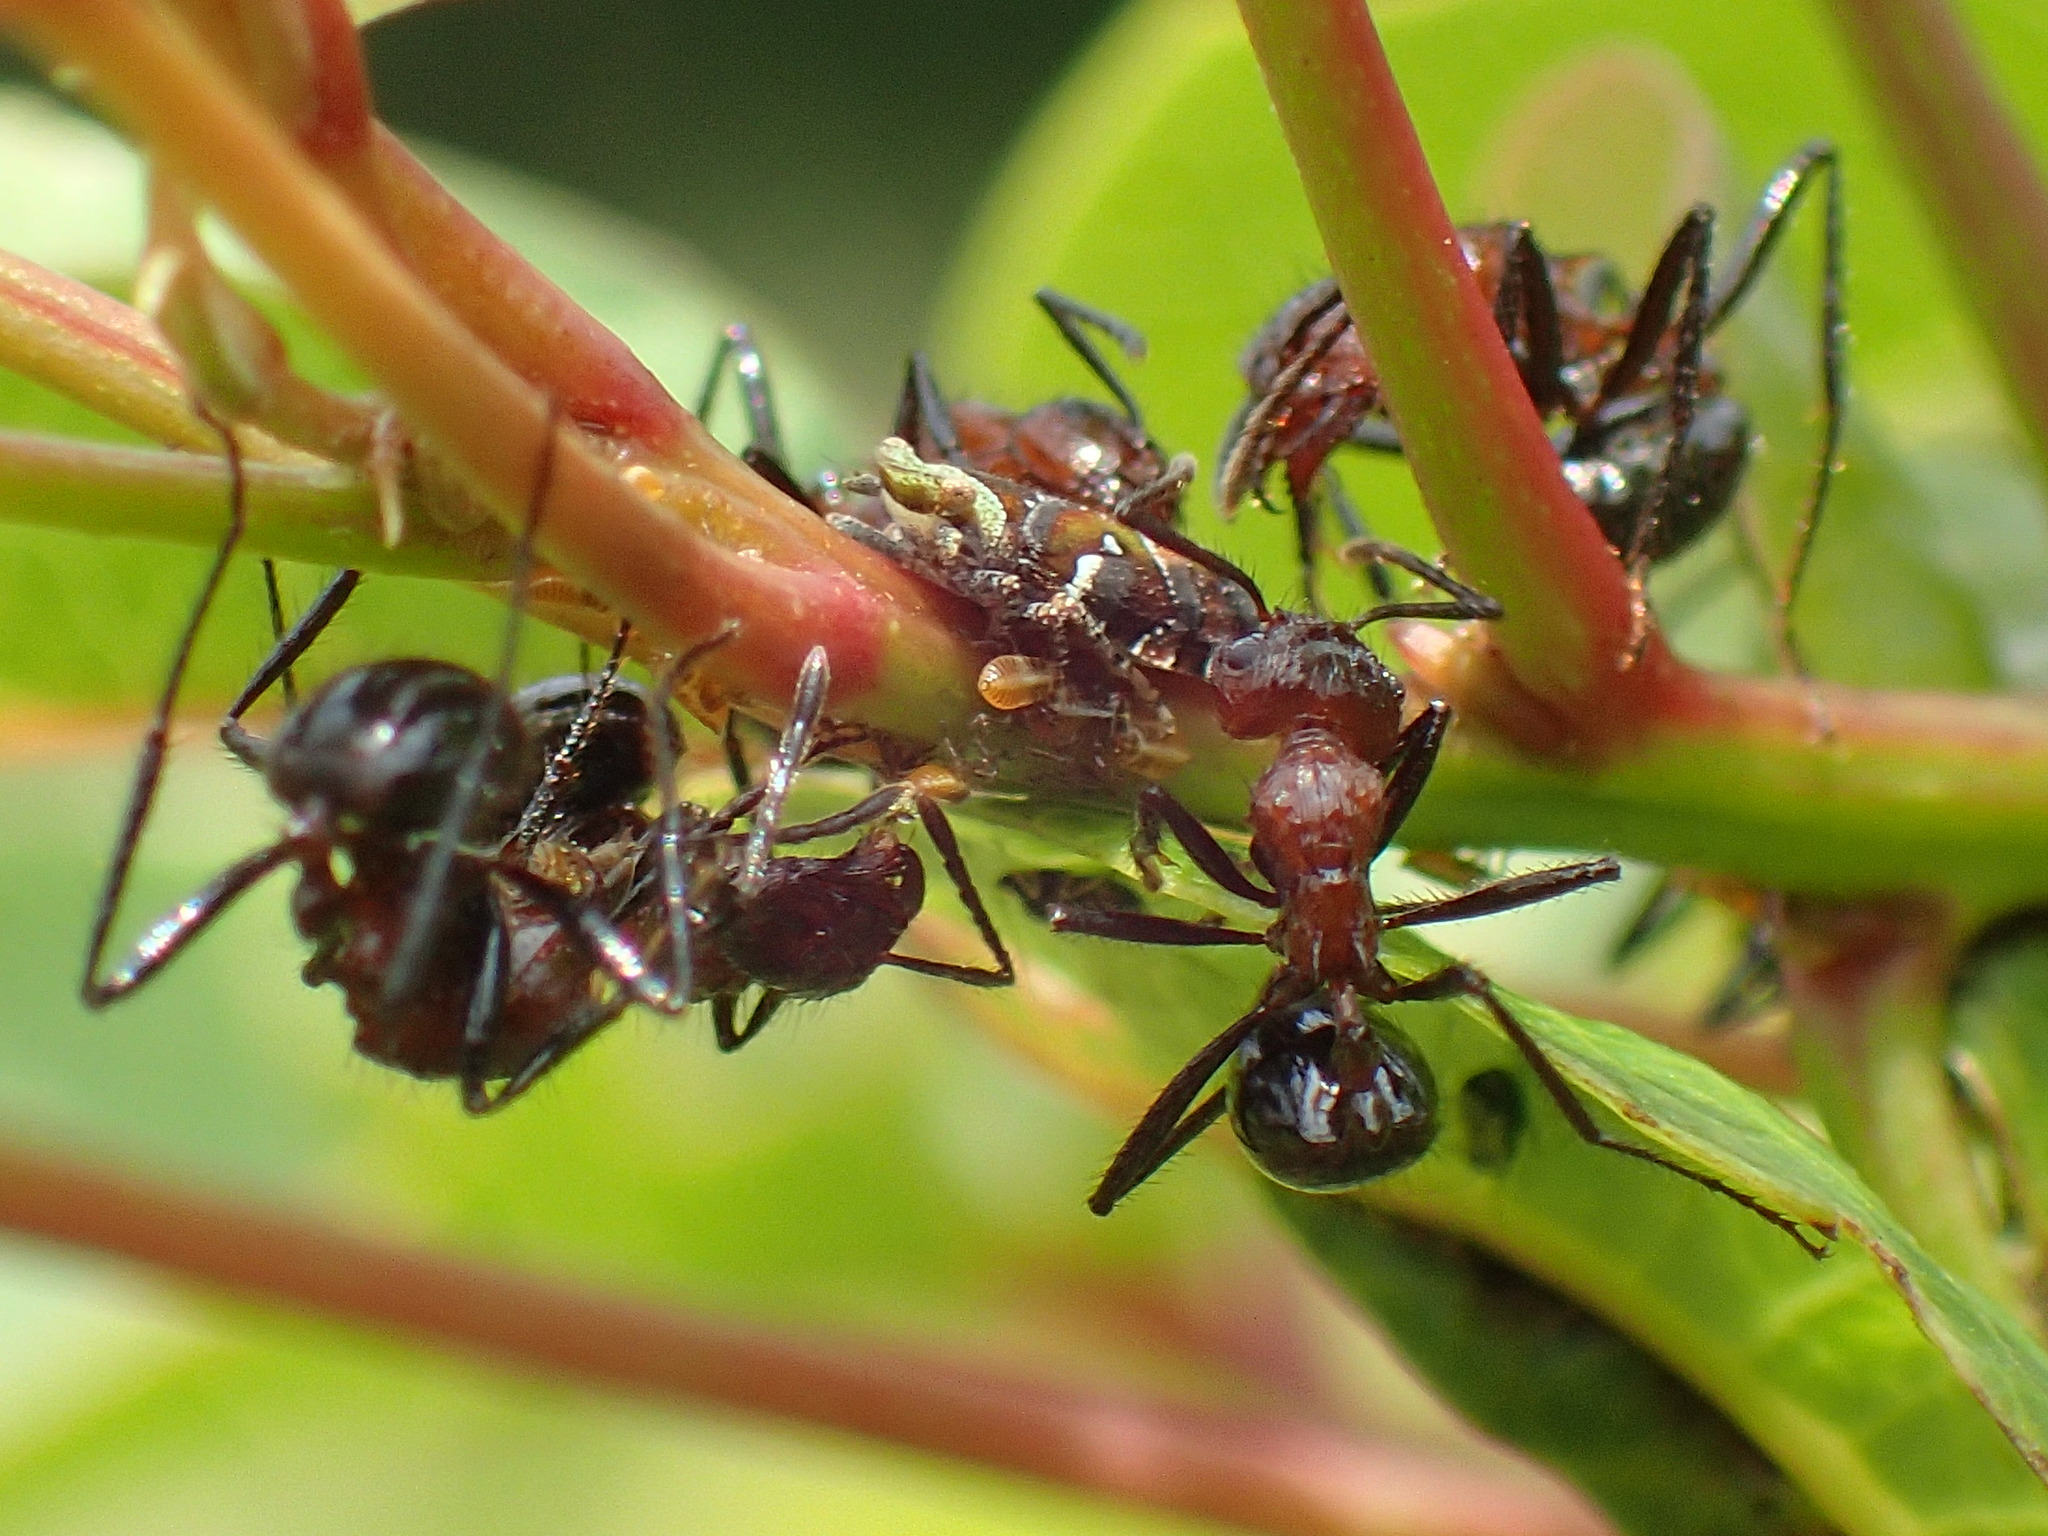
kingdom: Animalia
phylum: Arthropoda
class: Insecta
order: Hymenoptera
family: Formicidae
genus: Myrmicaria
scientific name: Myrmicaria natalensis
